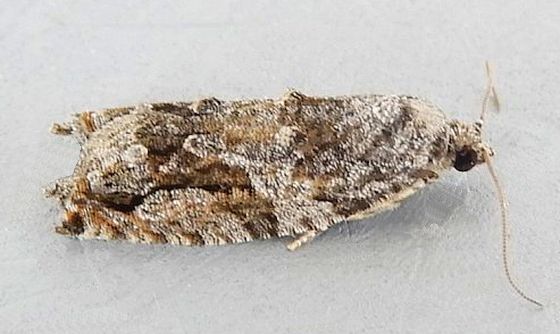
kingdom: Animalia
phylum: Arthropoda
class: Insecta
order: Lepidoptera
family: Tortricidae
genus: Proteoteras
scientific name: Proteoteras arizonae
